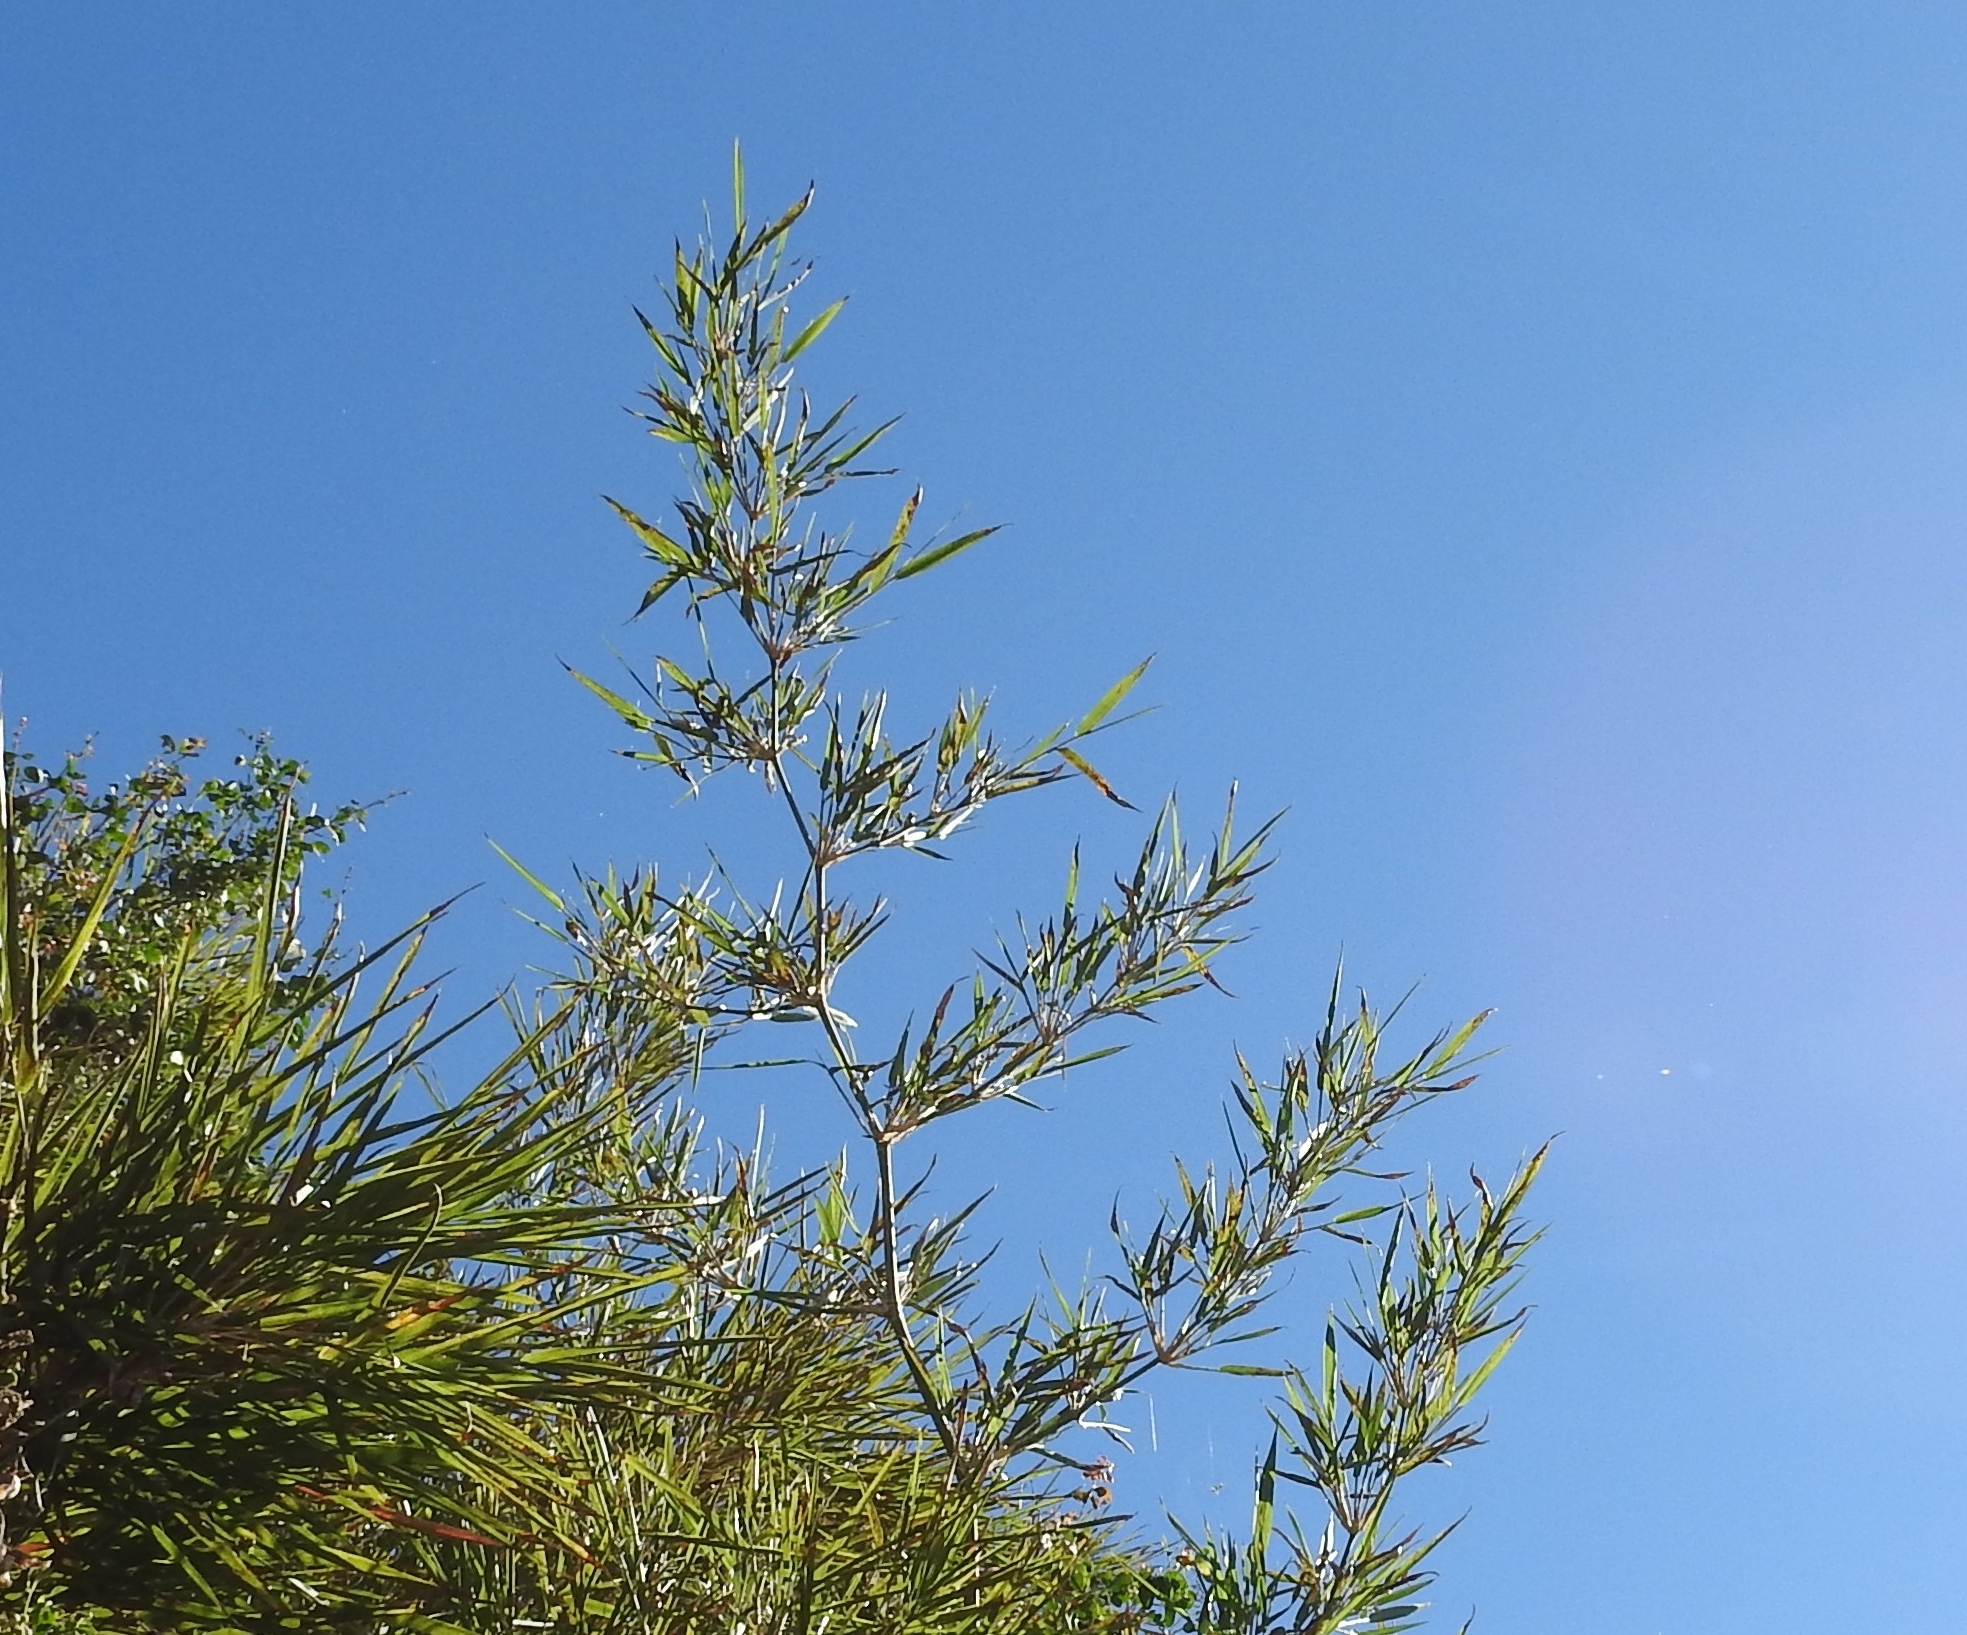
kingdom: Plantae
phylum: Tracheophyta
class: Liliopsida
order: Poales
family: Poaceae
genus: Guadua
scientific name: Guadua paniculata
